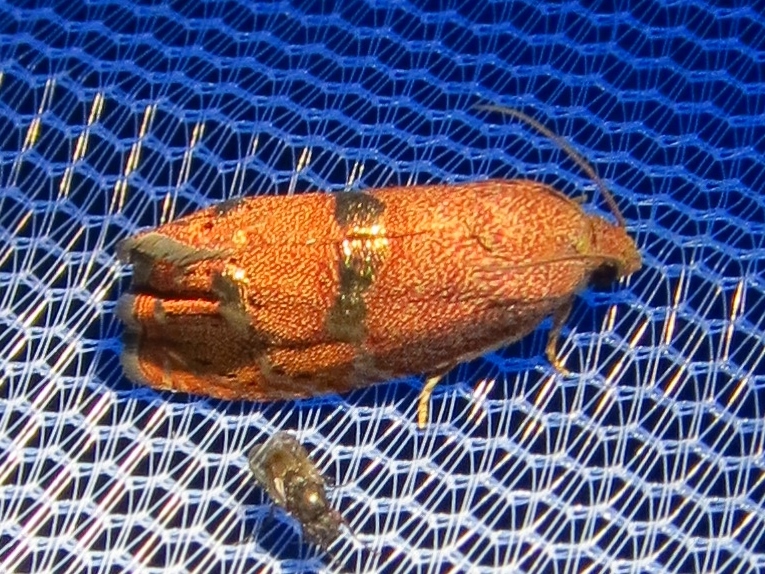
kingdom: Animalia
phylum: Arthropoda
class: Insecta
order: Lepidoptera
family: Tortricidae
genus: Cydia
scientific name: Cydia latiferreana
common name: Filbertworm moth
